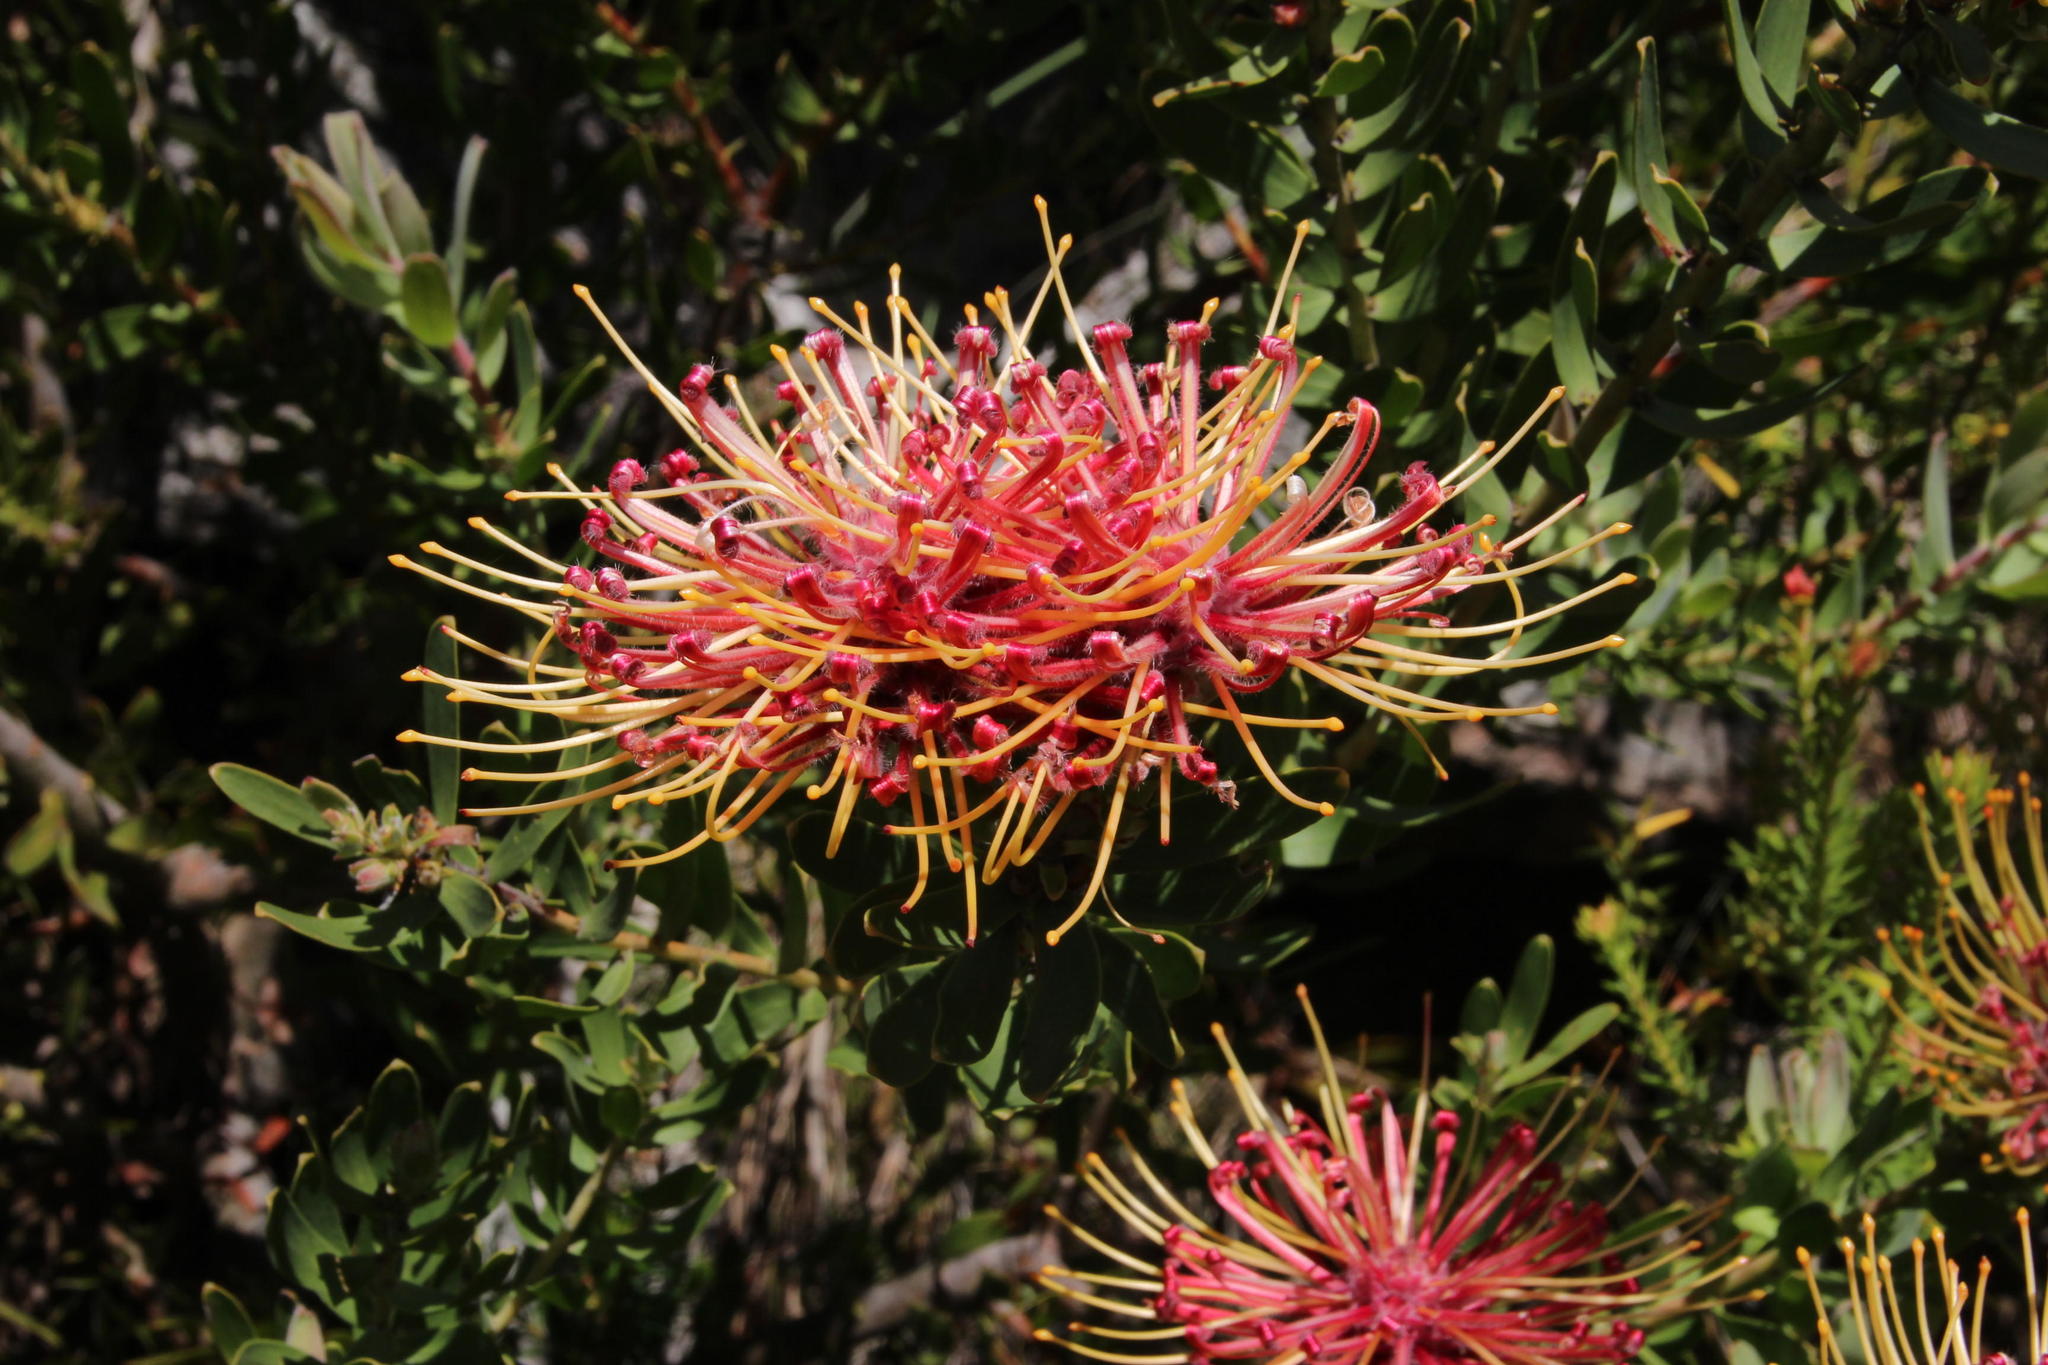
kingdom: Plantae
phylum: Tracheophyta
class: Magnoliopsida
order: Proteales
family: Proteaceae
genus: Leucospermum
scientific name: Leucospermum tottum
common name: Ribbon pincushion
